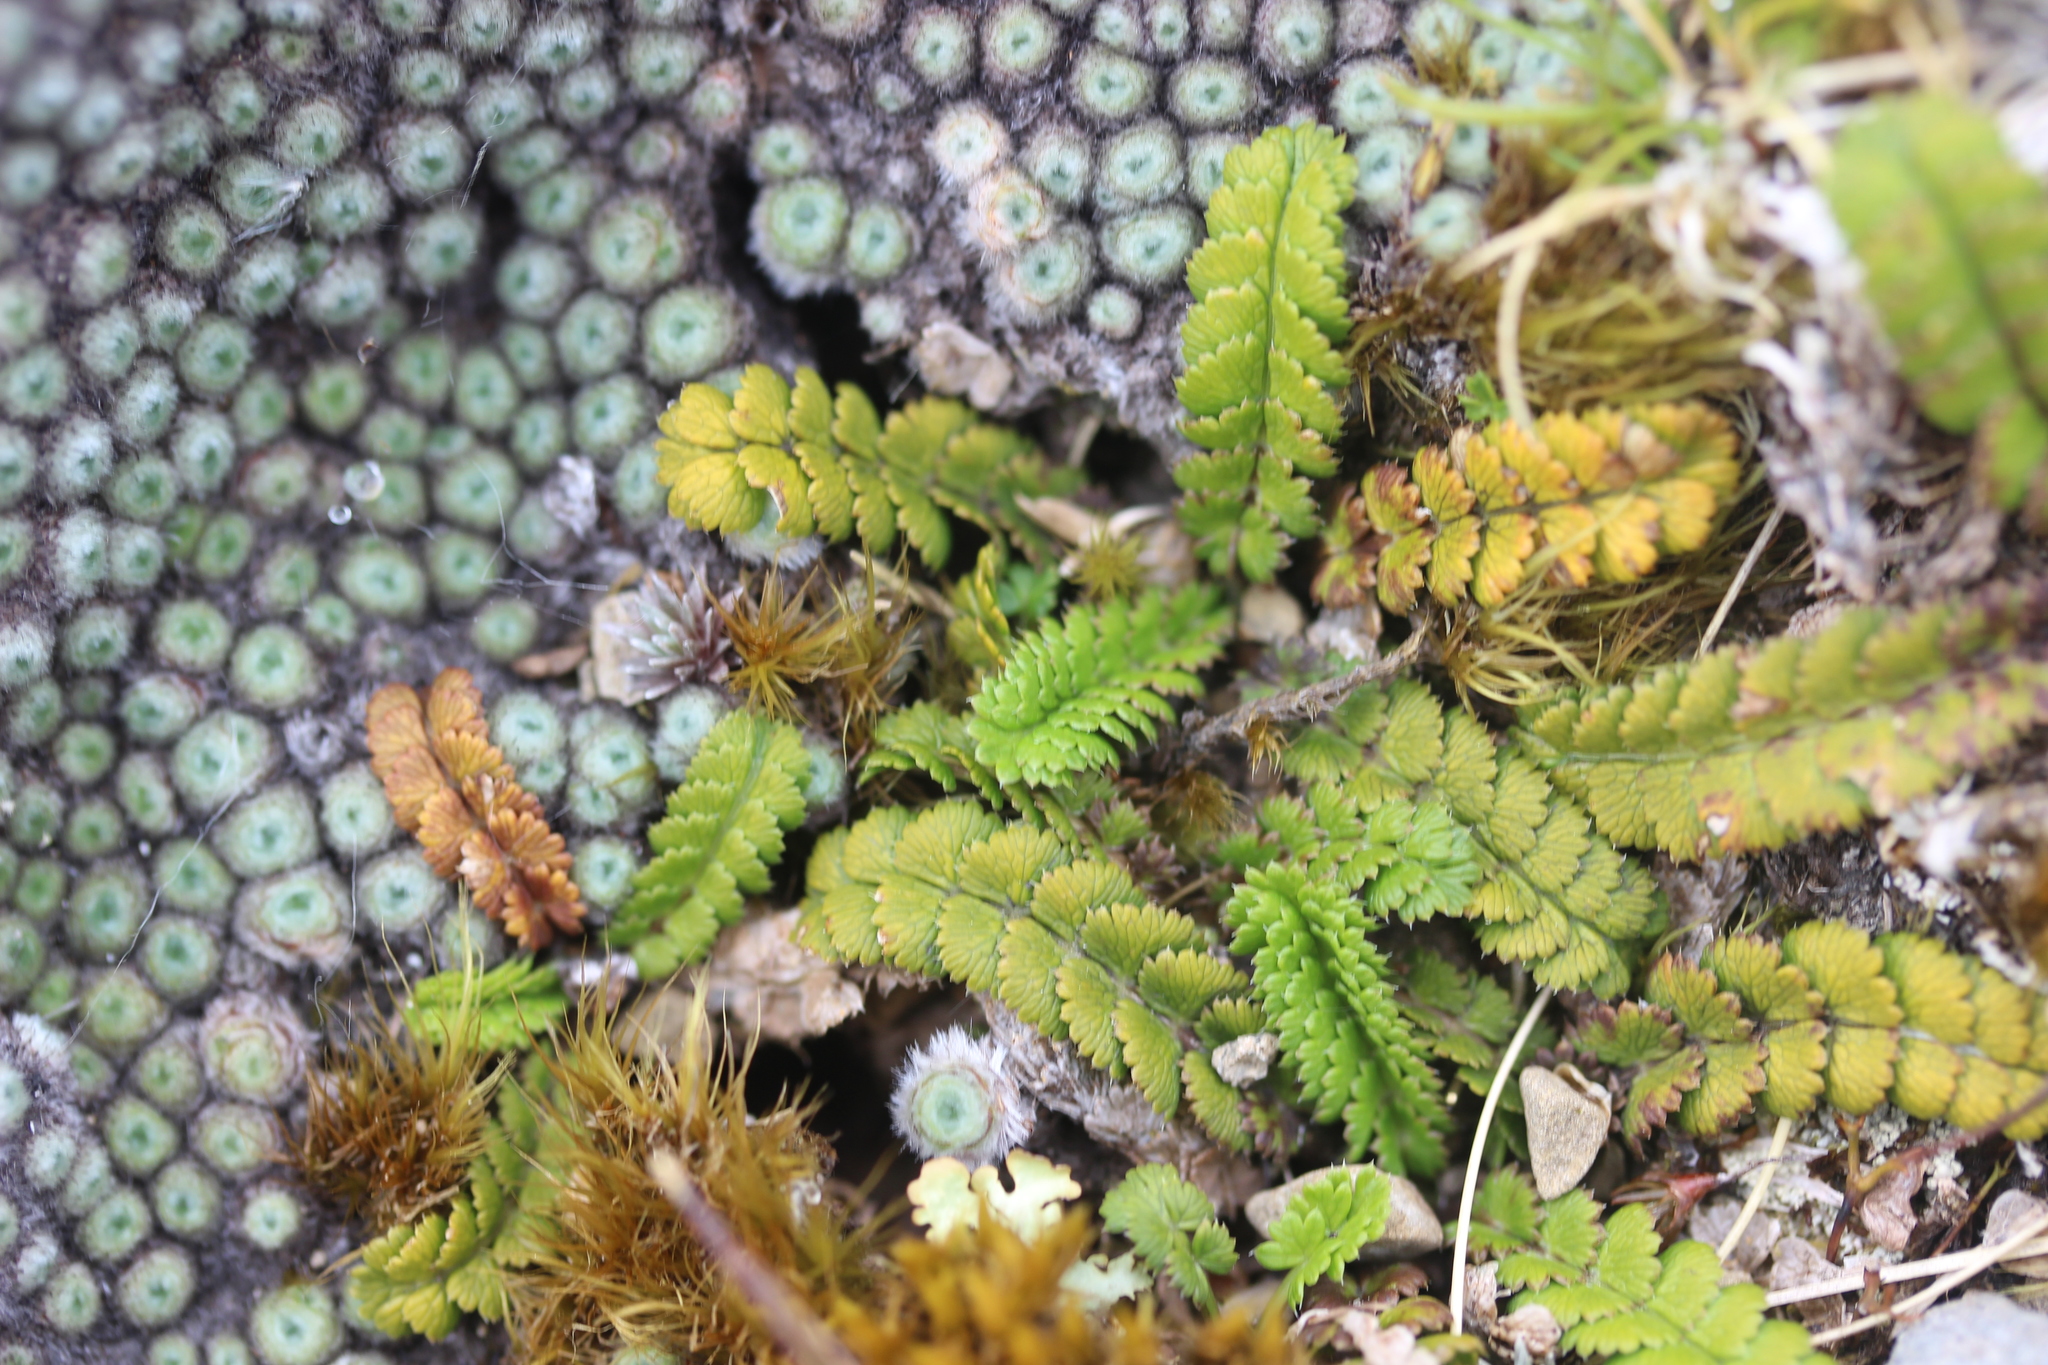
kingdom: Plantae
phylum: Tracheophyta
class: Magnoliopsida
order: Apiales
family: Apiaceae
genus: Anisotome
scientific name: Anisotome aromatica
